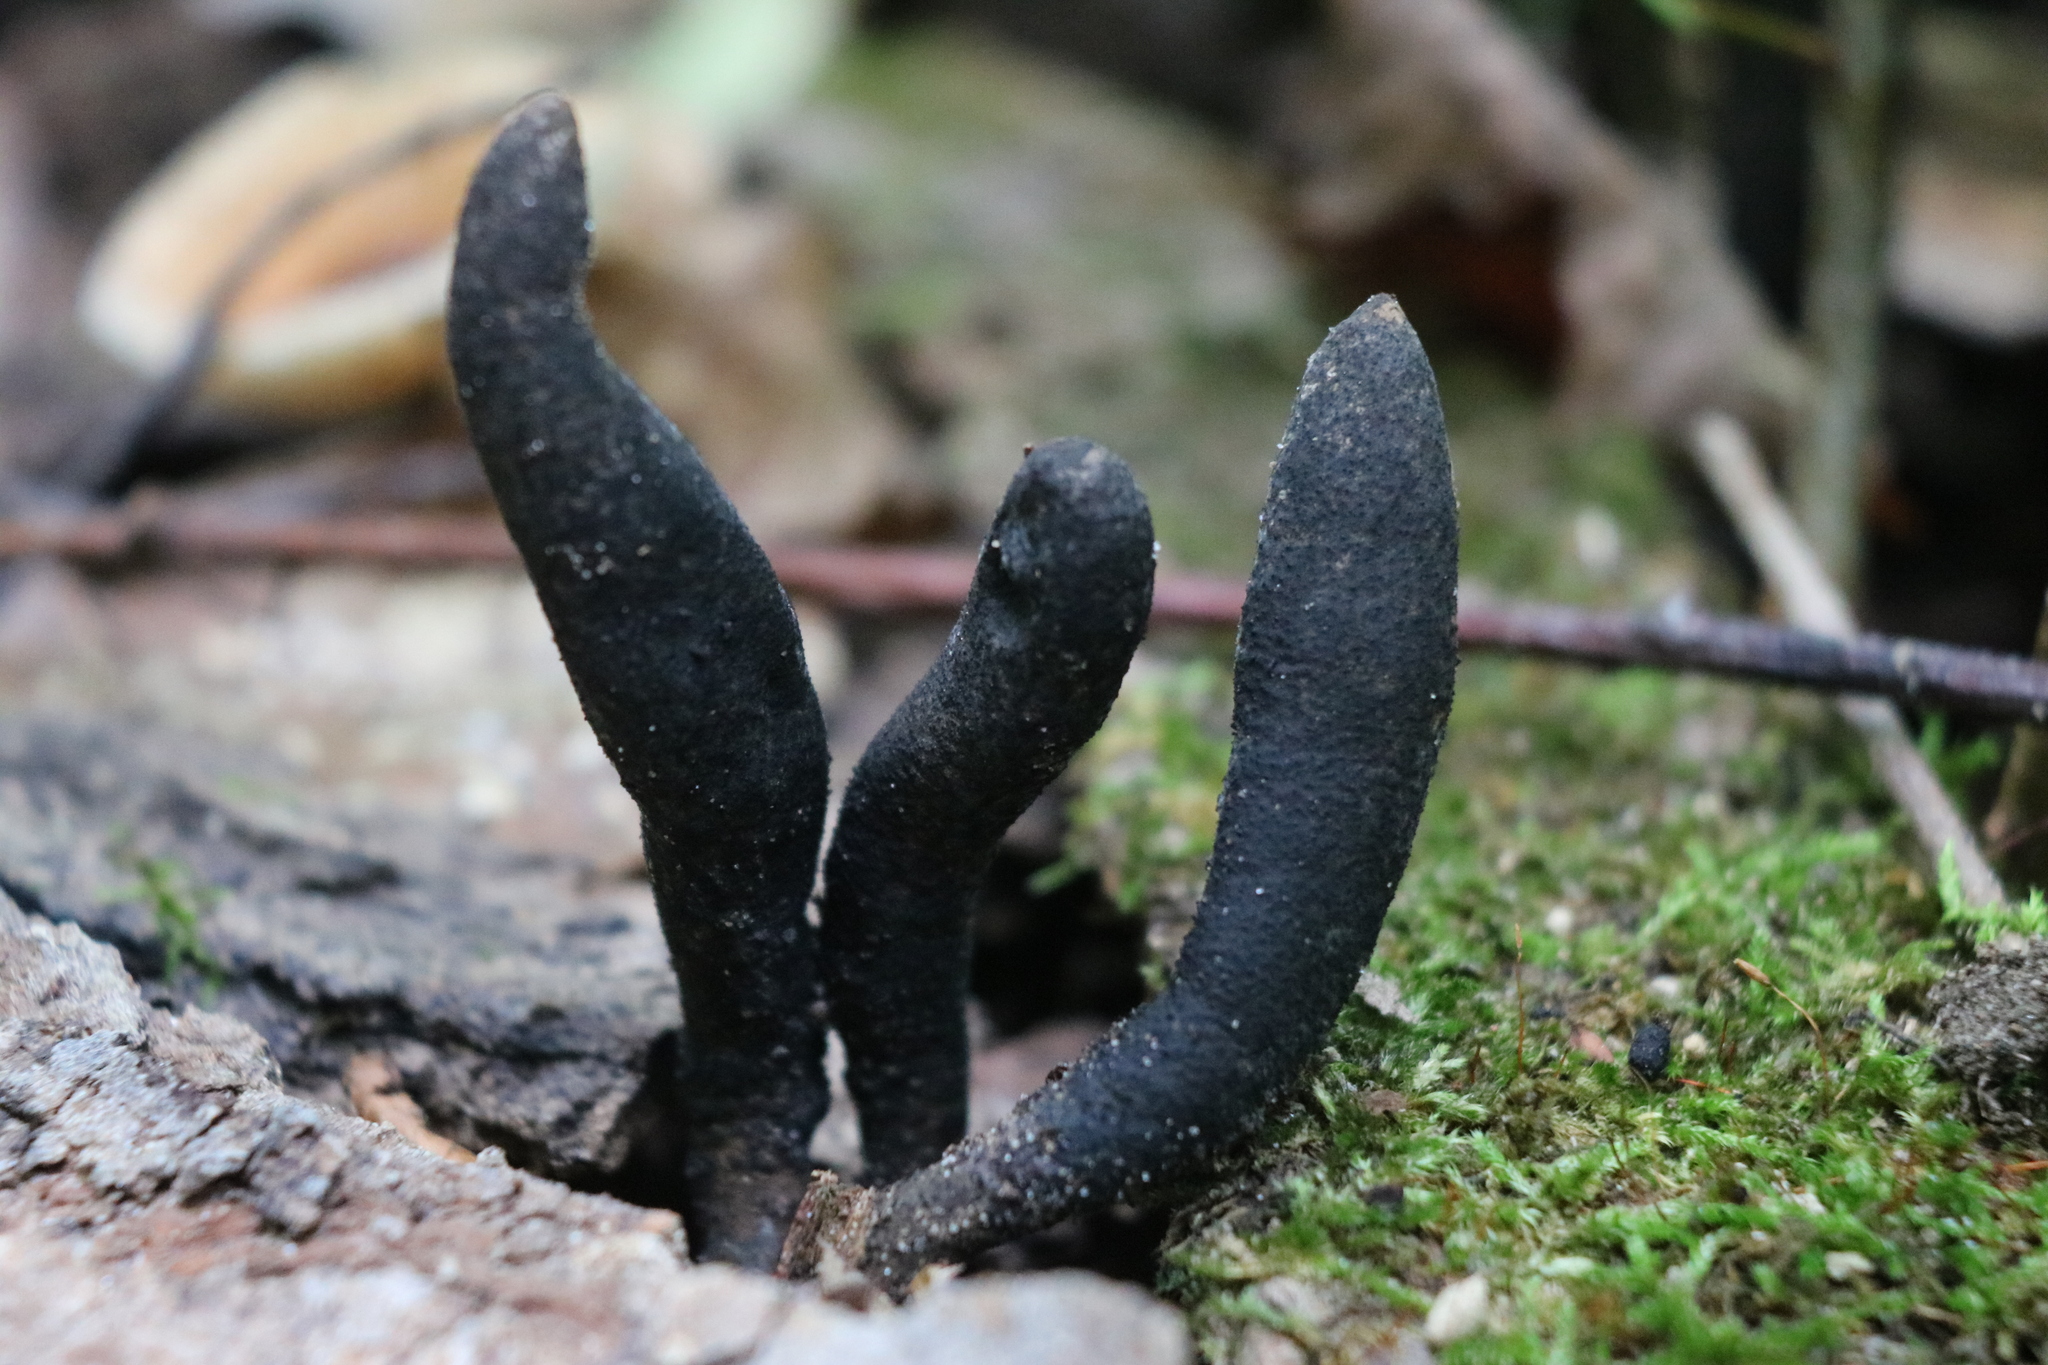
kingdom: Fungi
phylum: Ascomycota
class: Sordariomycetes
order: Xylariales
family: Xylariaceae
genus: Xylaria
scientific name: Xylaria polymorpha
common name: Dead man's fingers
